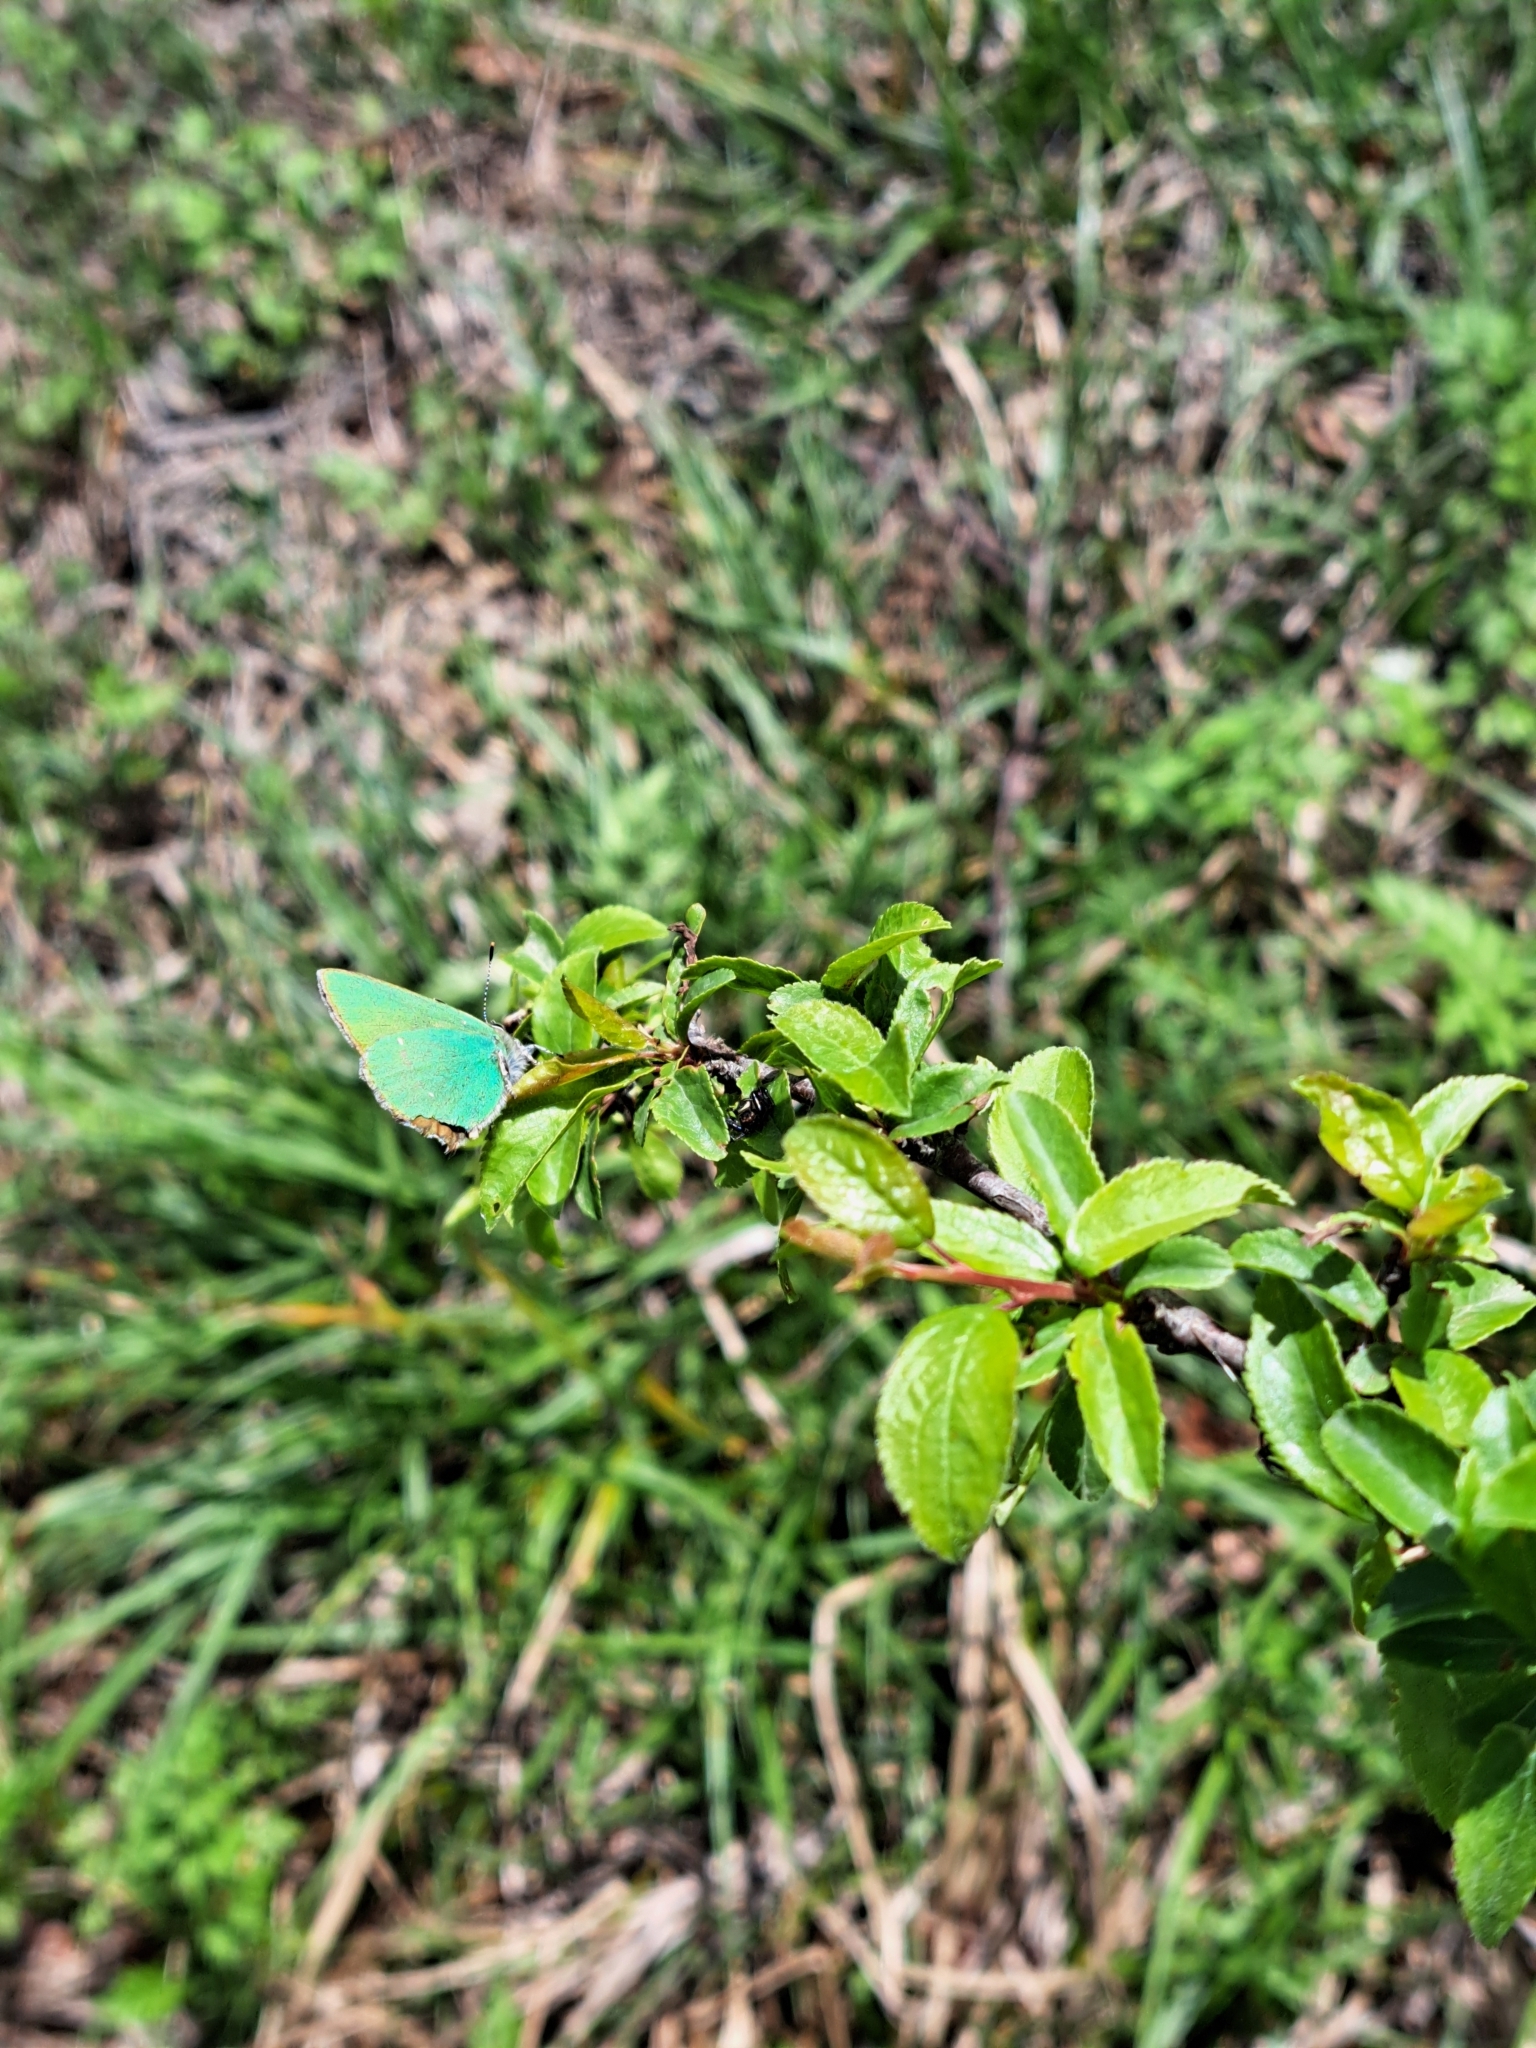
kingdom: Animalia
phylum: Arthropoda
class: Insecta
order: Lepidoptera
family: Lycaenidae
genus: Callophrys
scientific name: Callophrys rubi
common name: Green hairstreak
